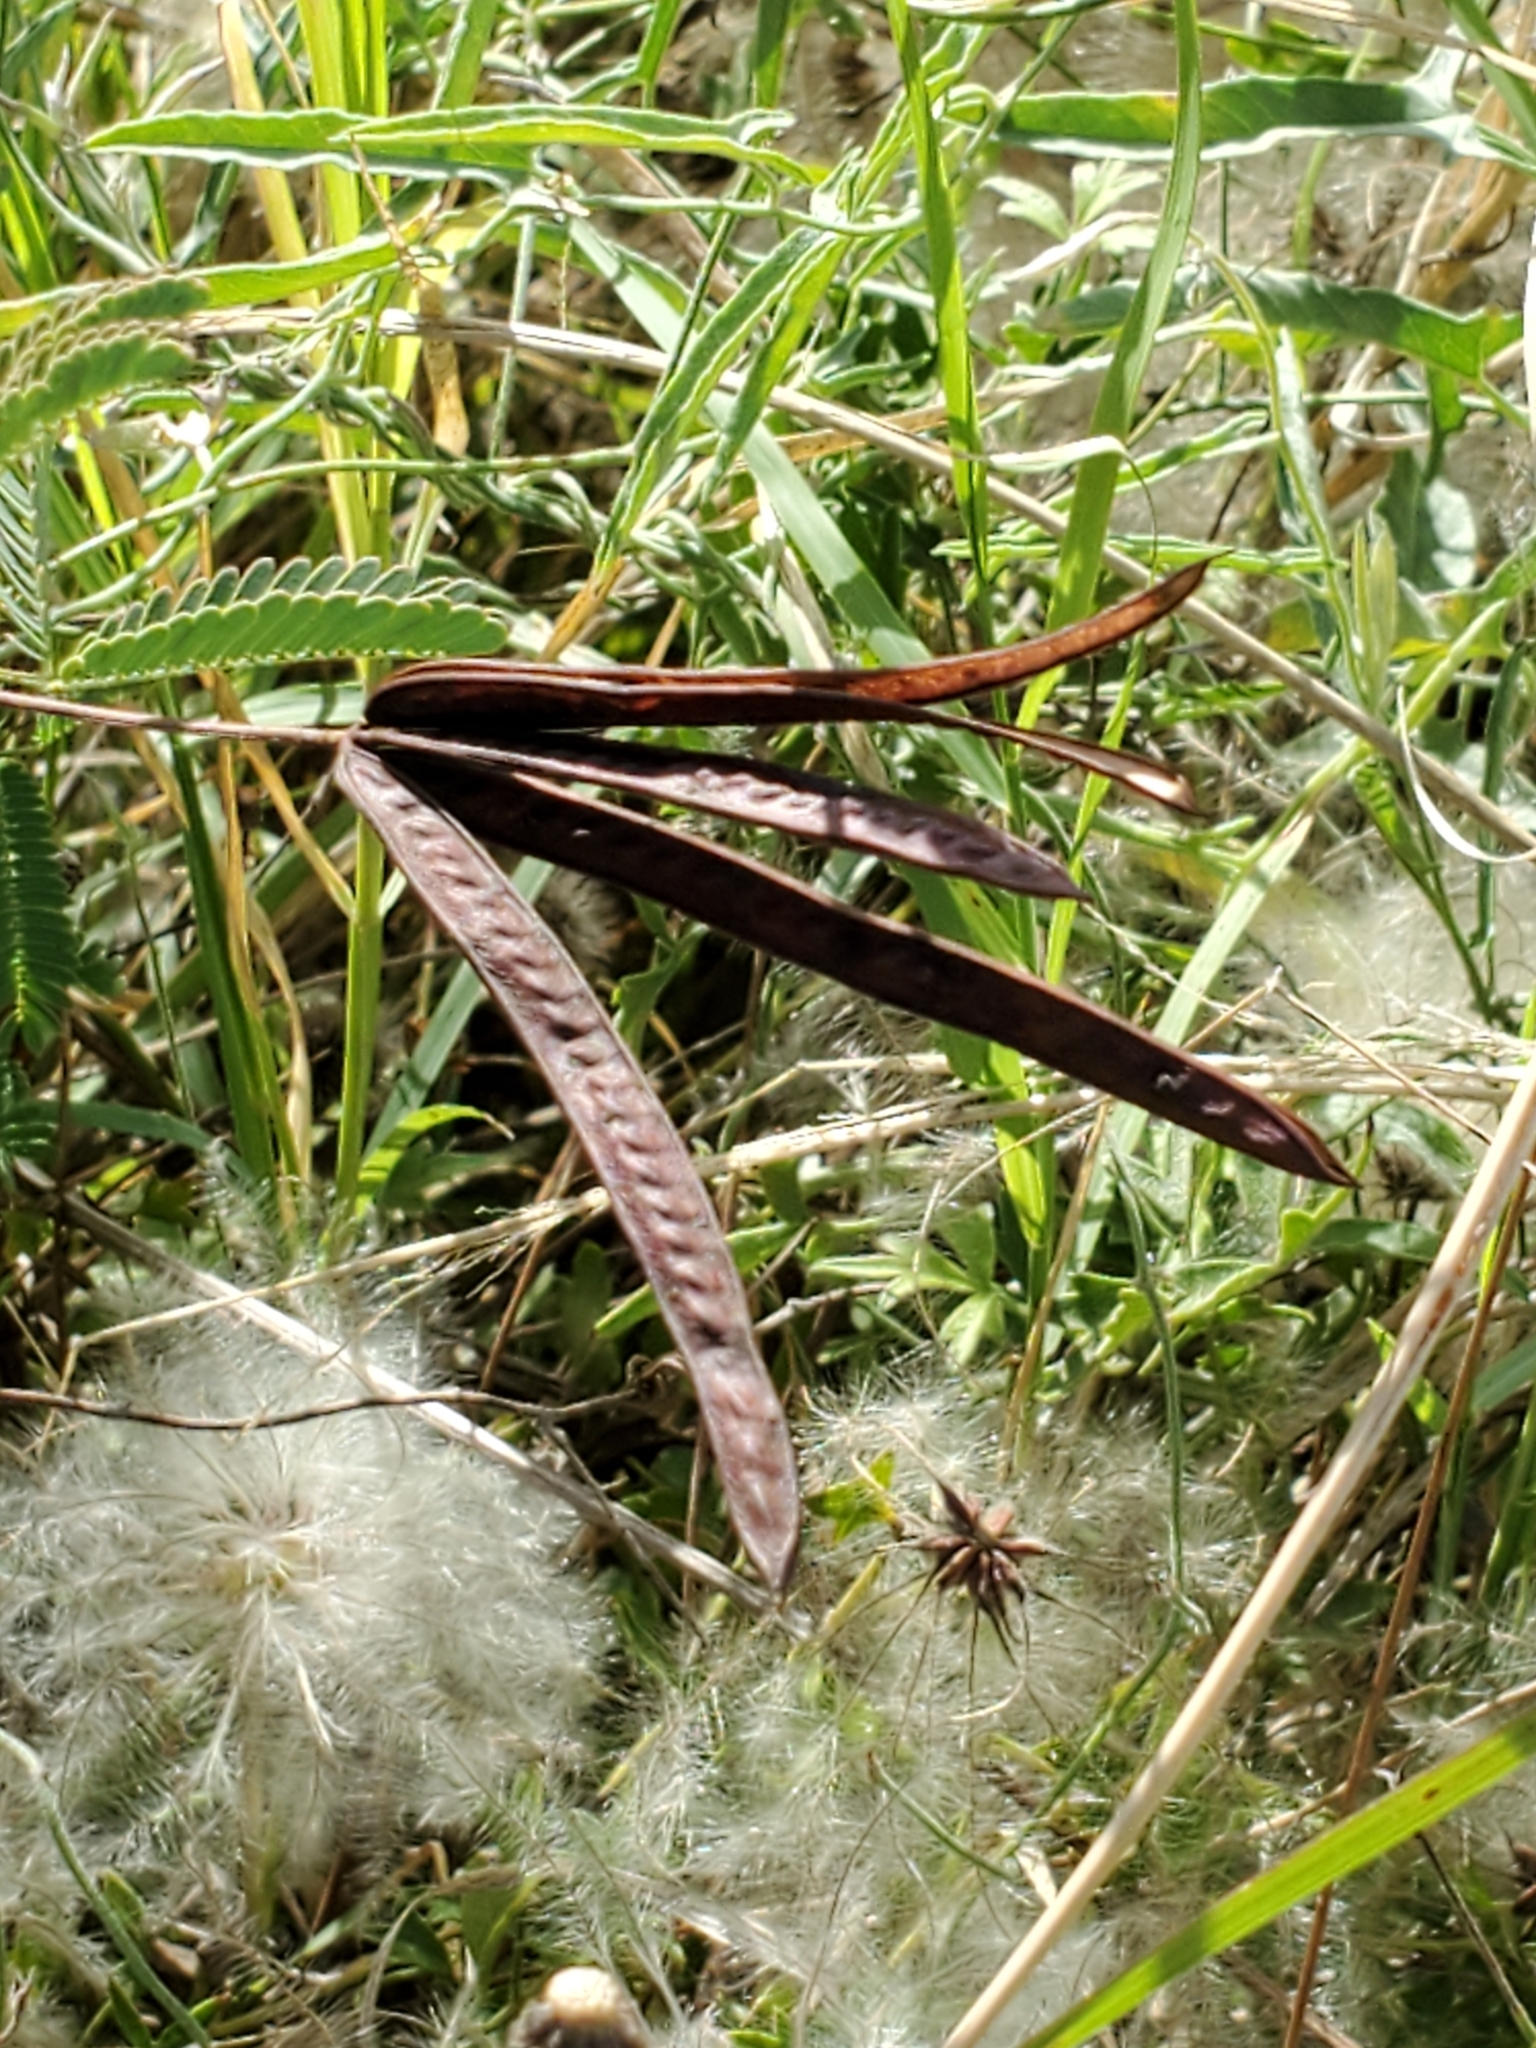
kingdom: Plantae
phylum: Tracheophyta
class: Magnoliopsida
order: Fabales
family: Fabaceae
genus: Desmanthus
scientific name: Desmanthus velutinus
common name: Velvet bundle-flower
